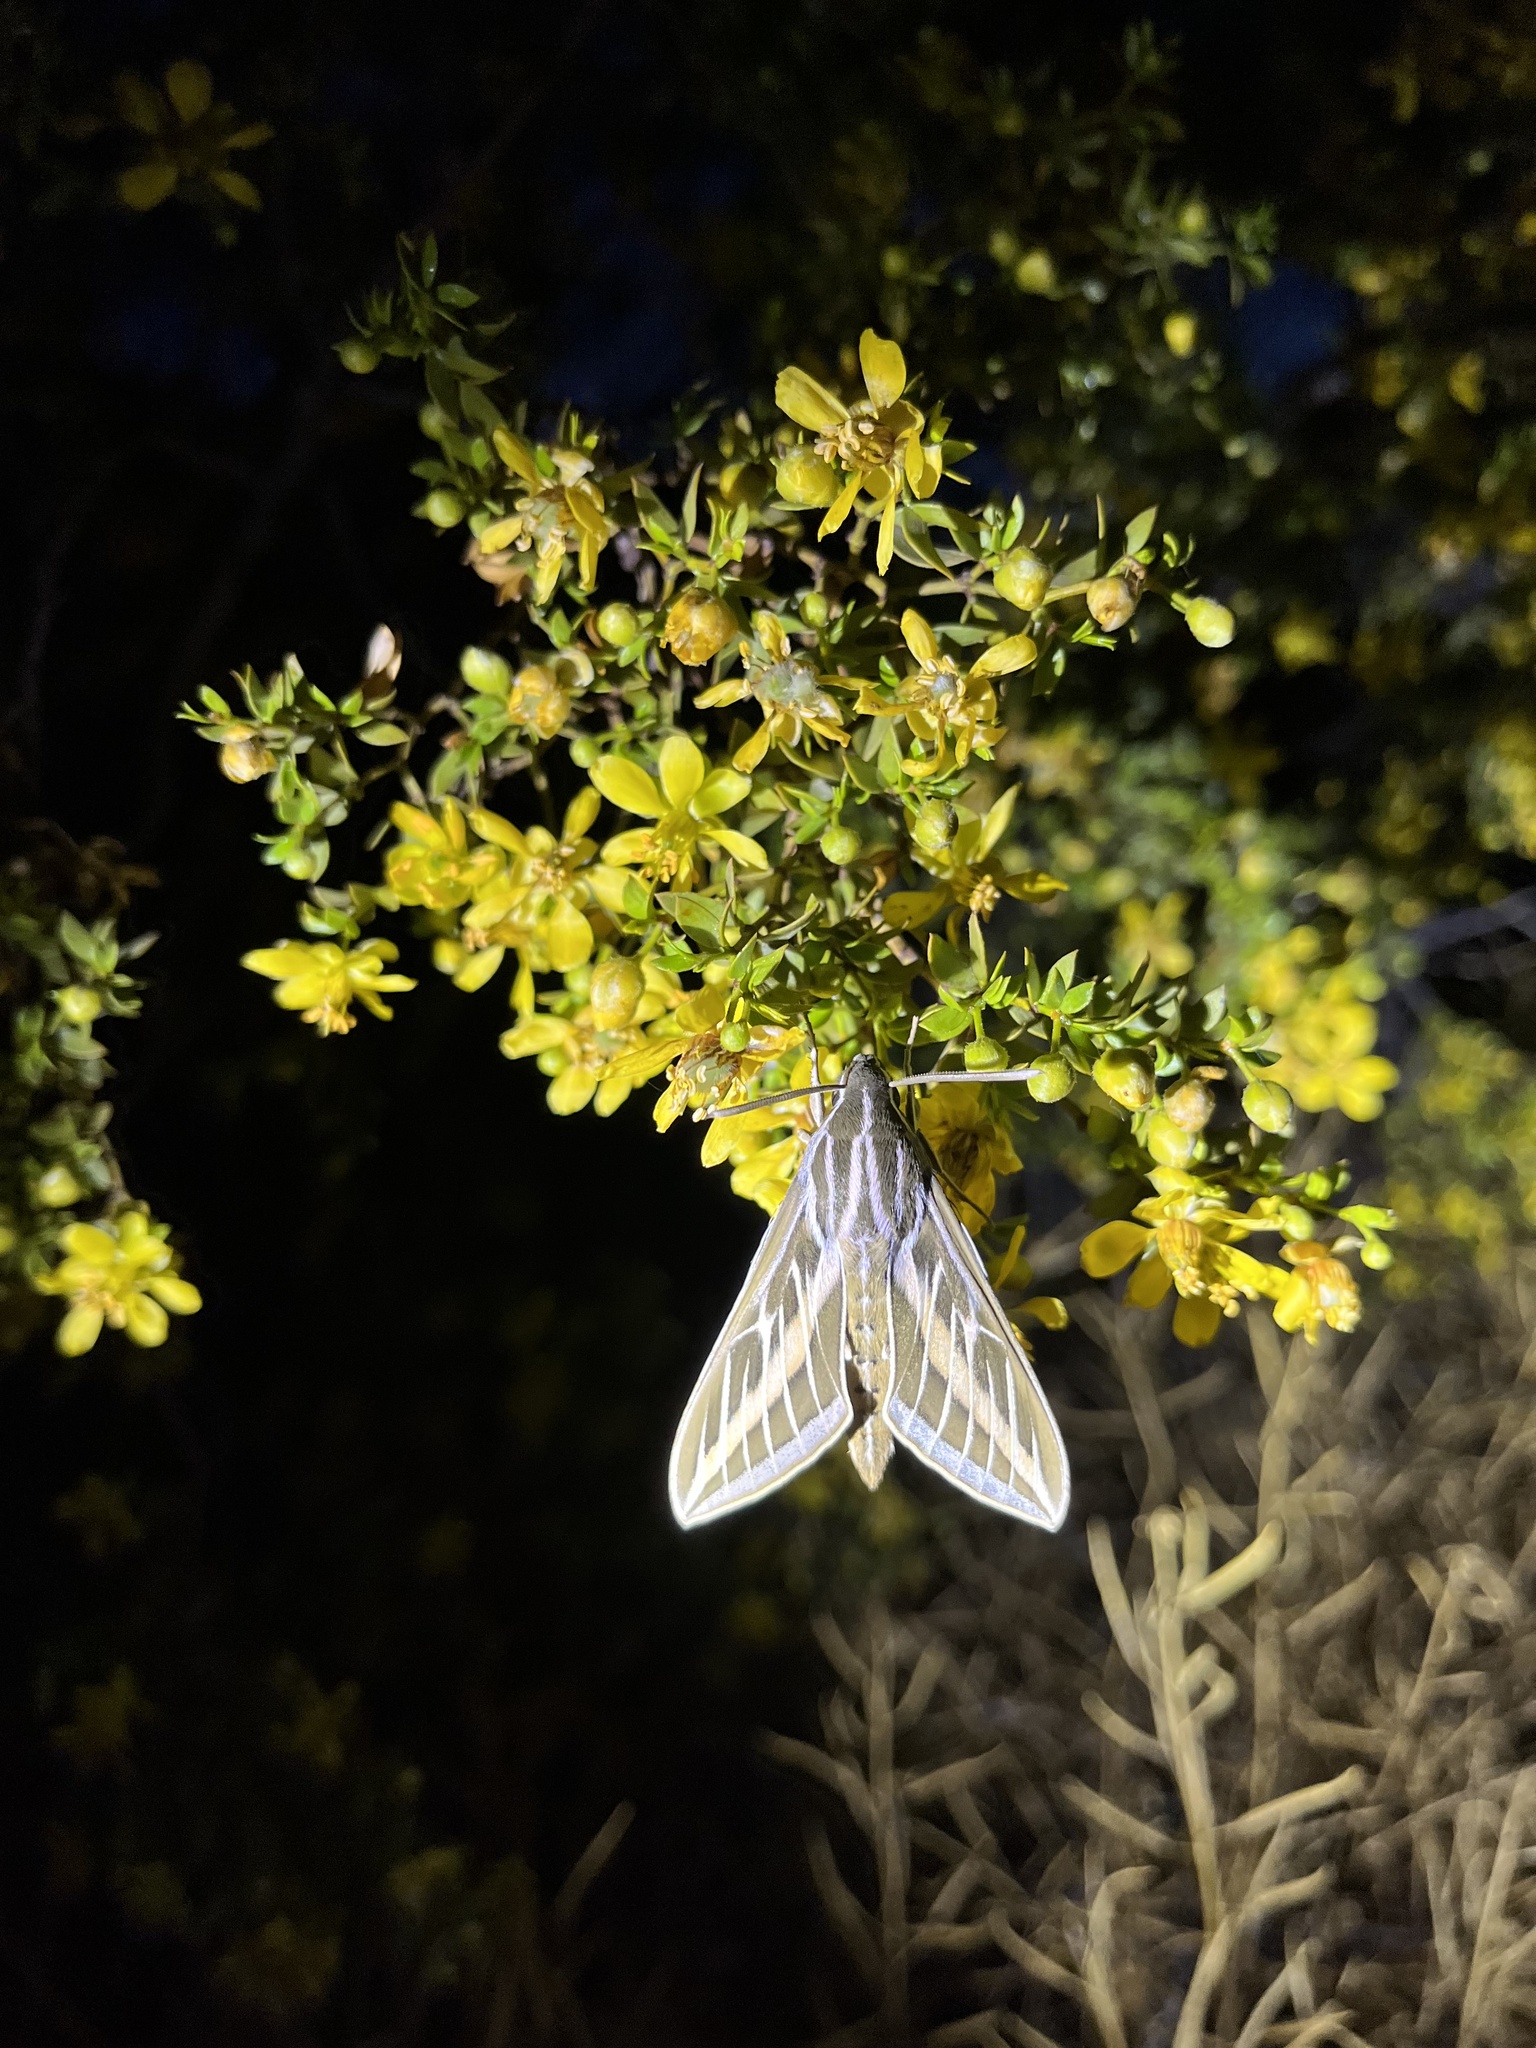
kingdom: Animalia
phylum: Arthropoda
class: Insecta
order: Lepidoptera
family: Sphingidae
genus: Hyles
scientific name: Hyles lineata
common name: White-lined sphinx
